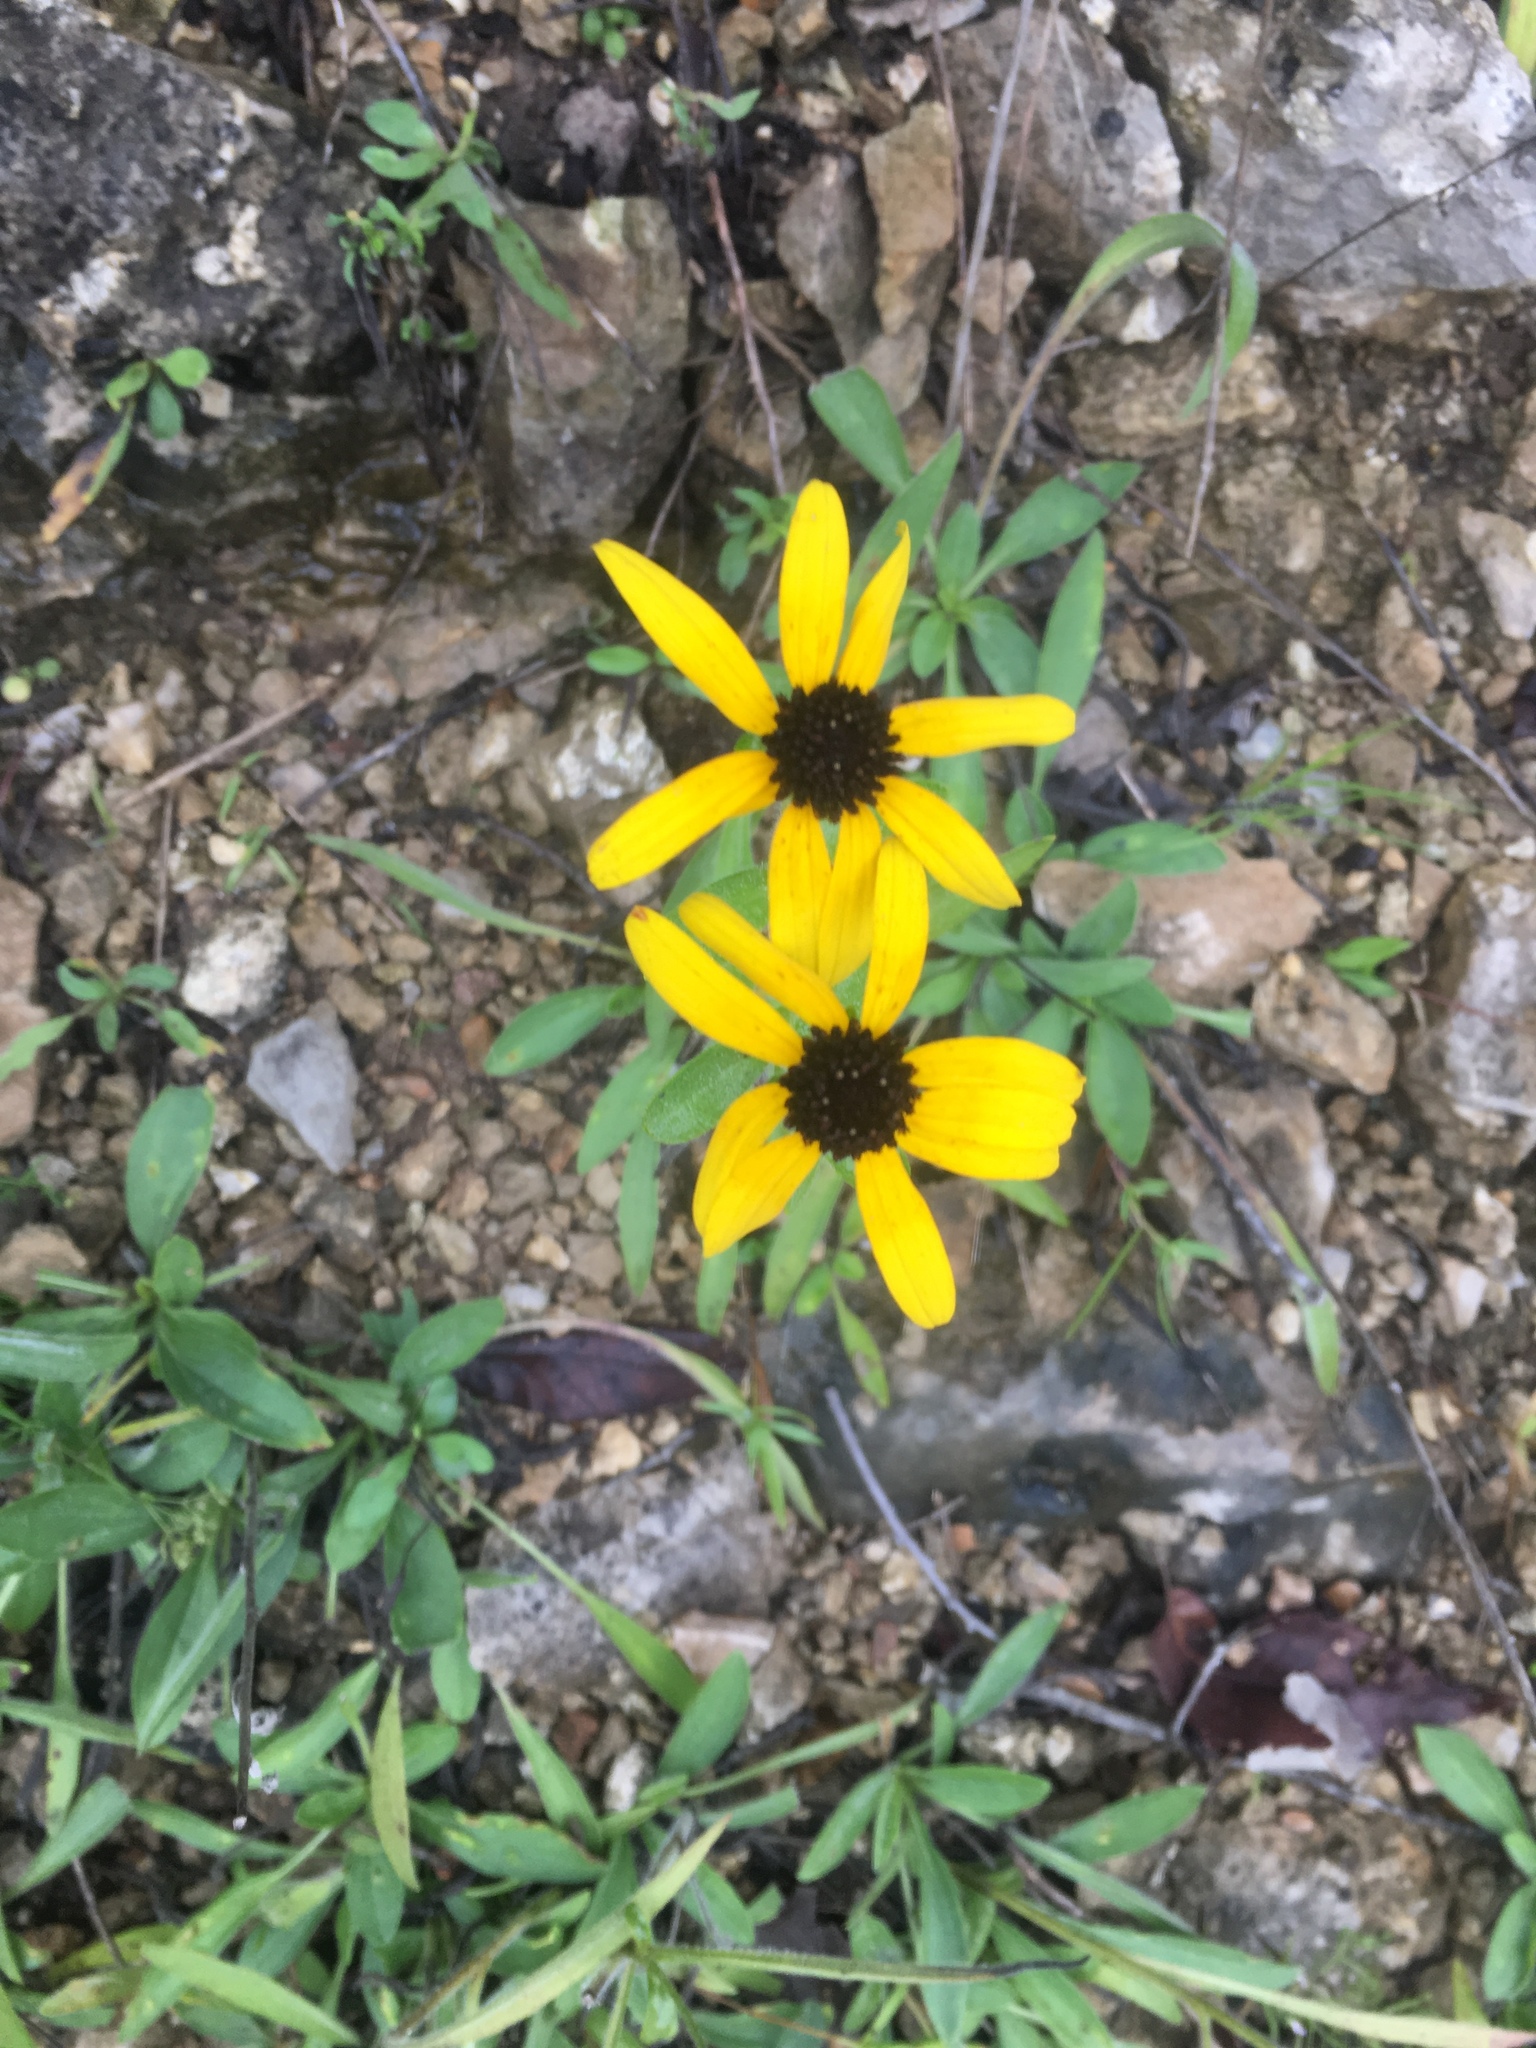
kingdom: Plantae
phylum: Tracheophyta
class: Magnoliopsida
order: Asterales
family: Asteraceae
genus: Rudbeckia
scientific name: Rudbeckia triloba
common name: Thin-leaved coneflower
